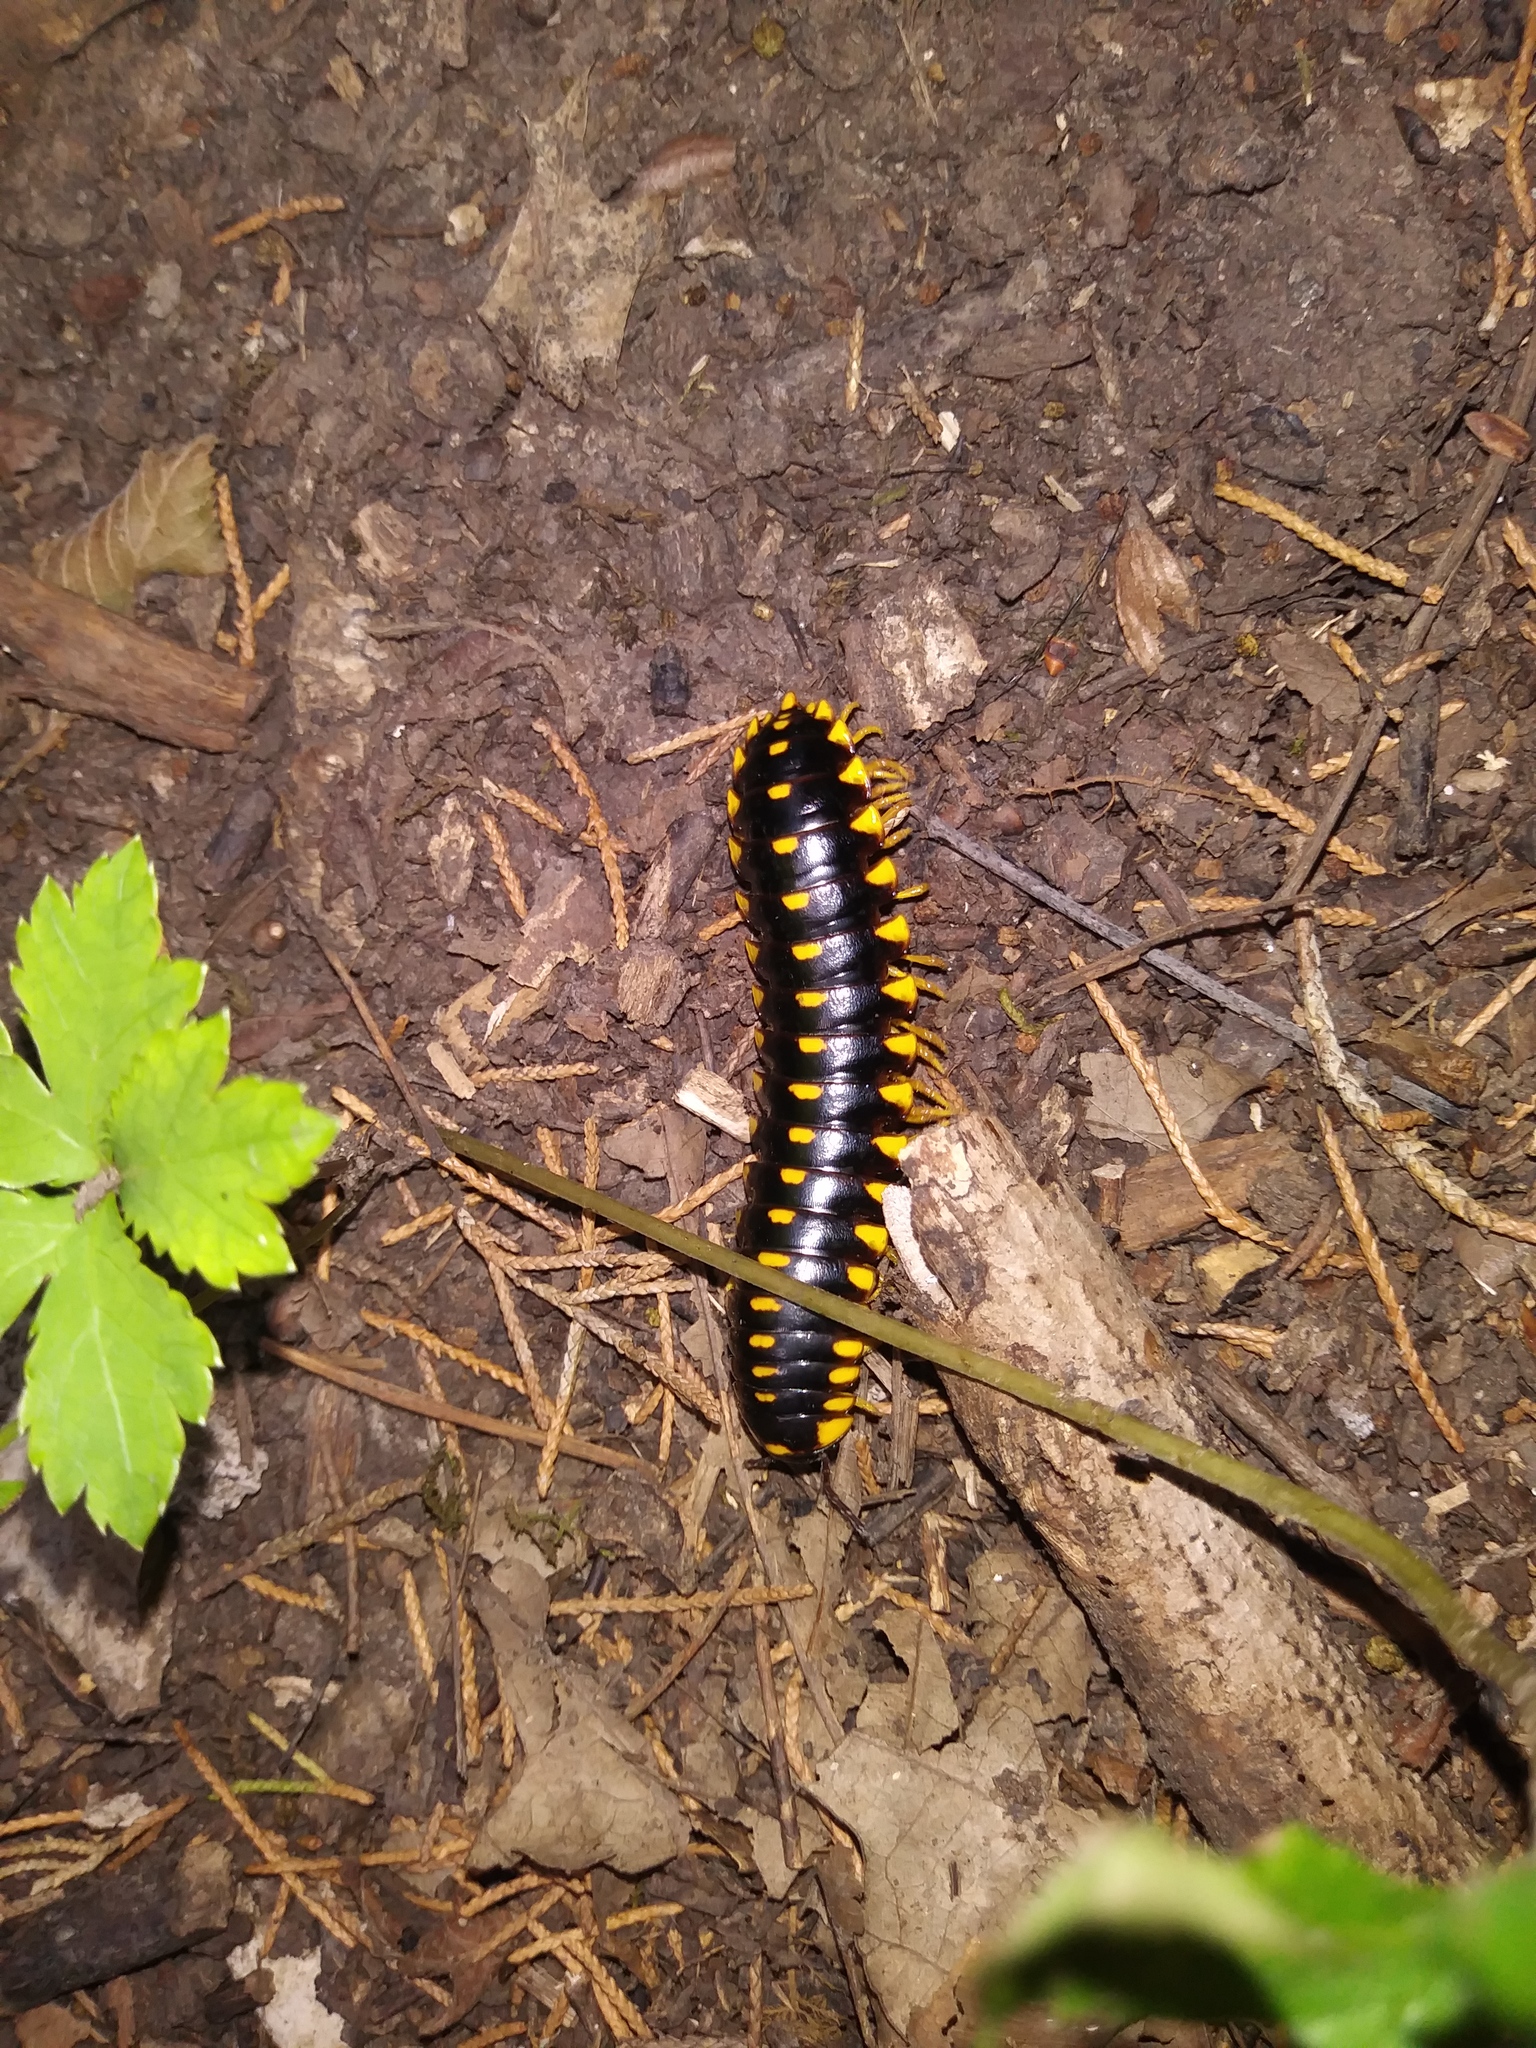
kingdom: Animalia
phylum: Arthropoda
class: Diplopoda
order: Polydesmida
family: Xystodesmidae
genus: Apheloria
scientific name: Apheloria montana
